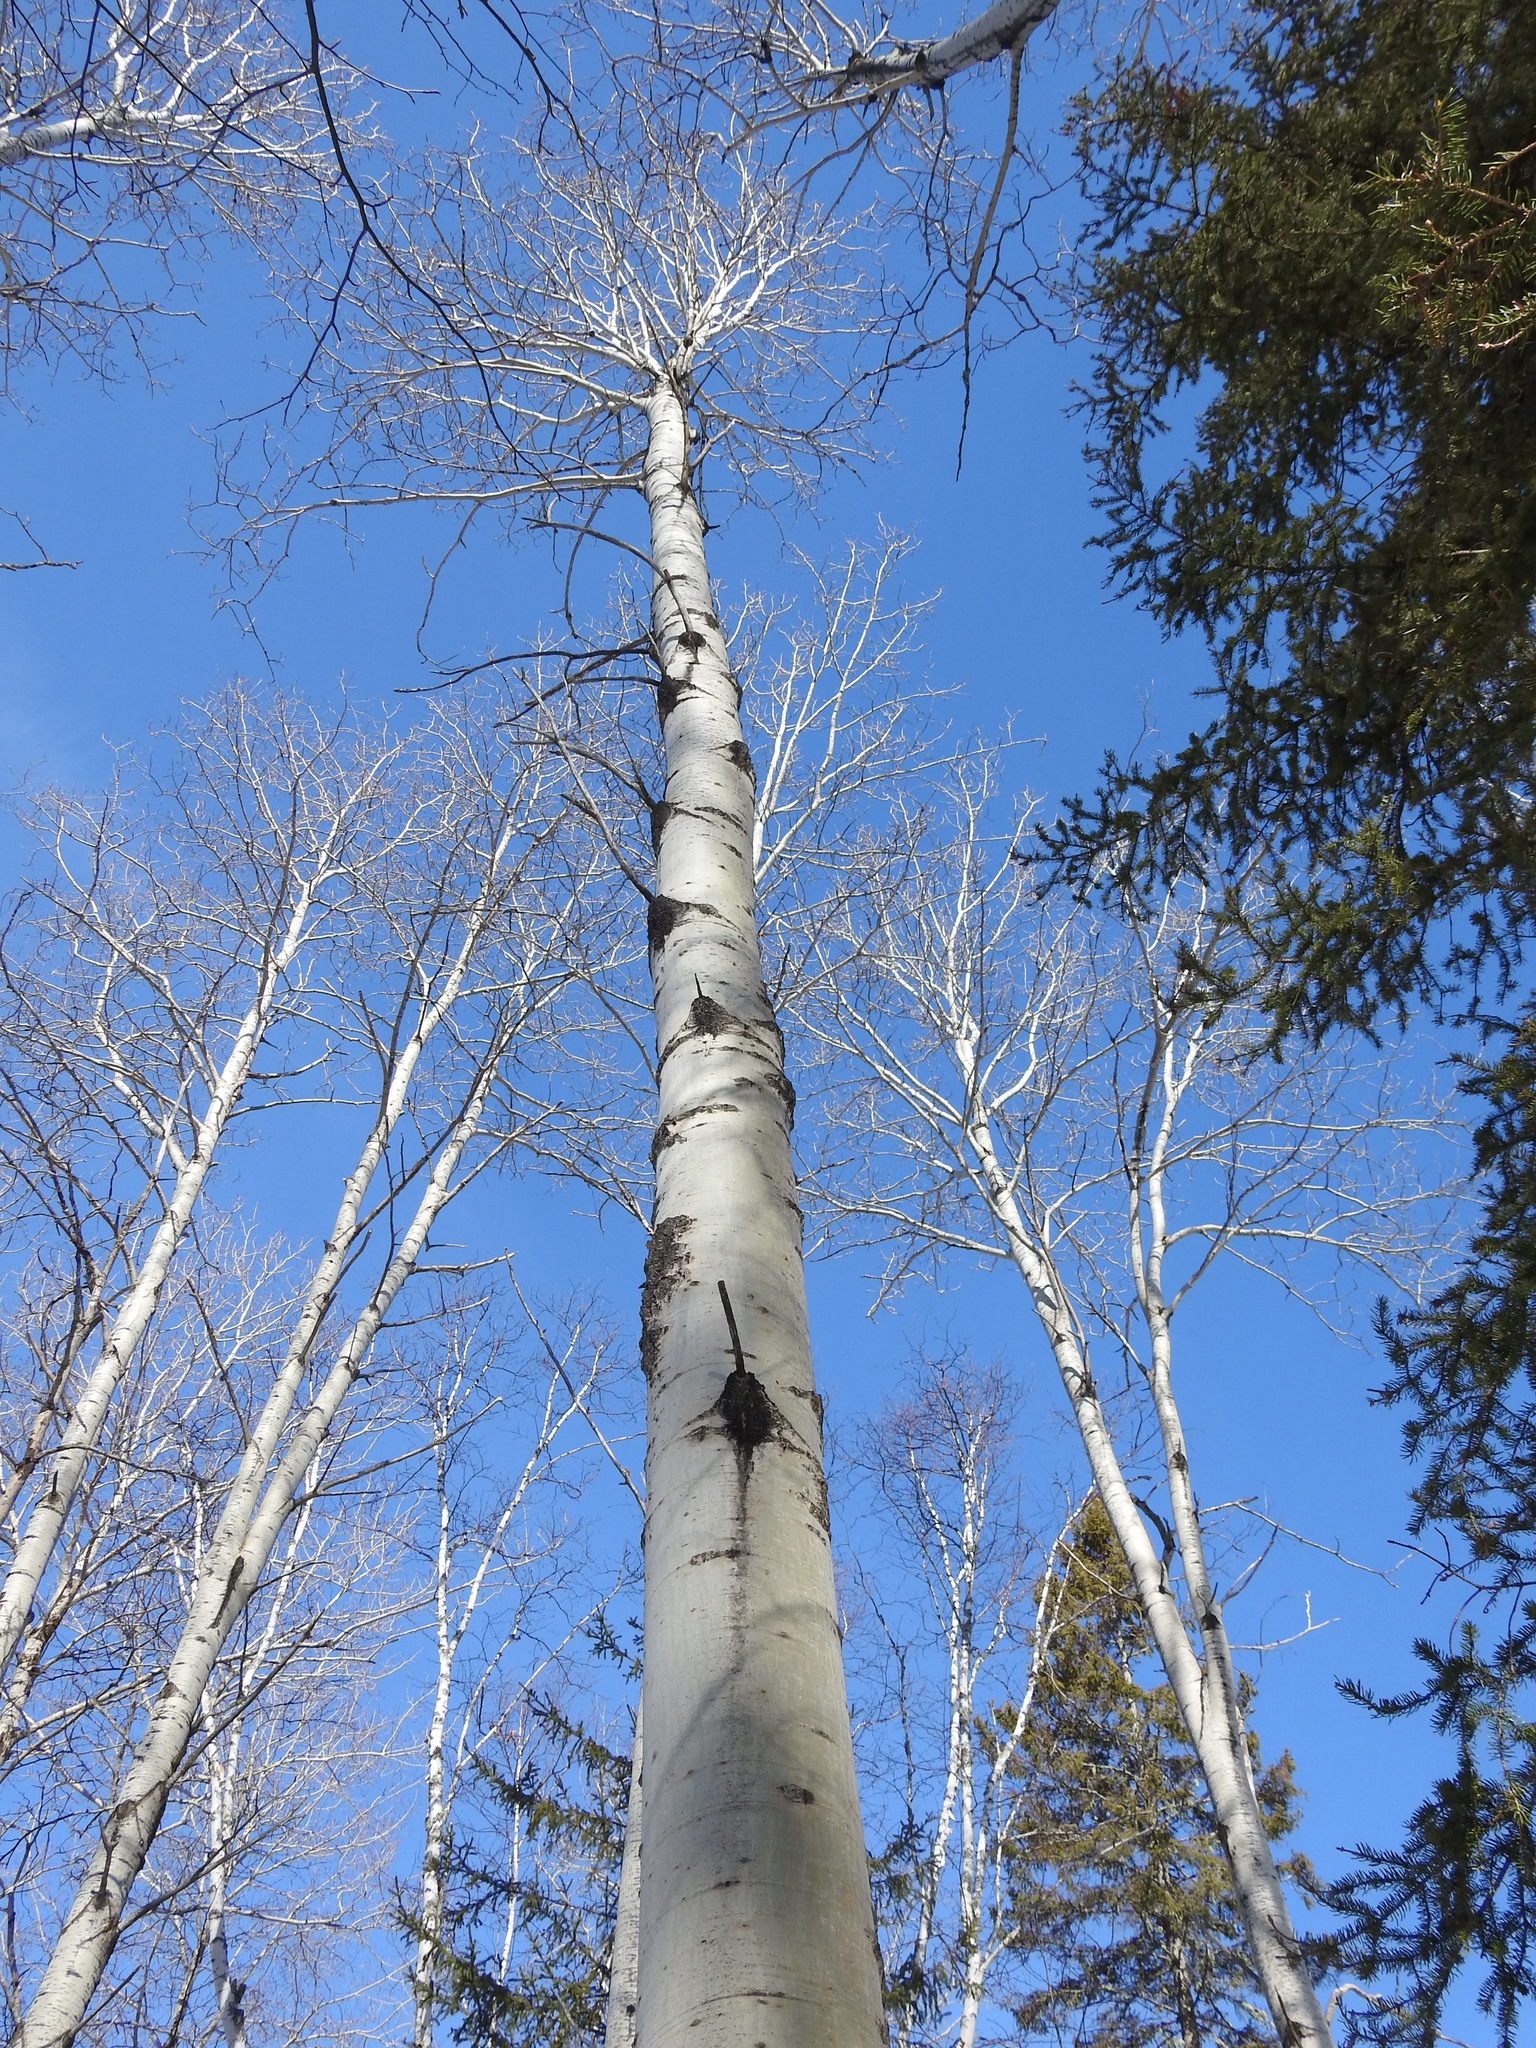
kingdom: Plantae
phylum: Tracheophyta
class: Magnoliopsida
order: Malpighiales
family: Salicaceae
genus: Populus
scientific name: Populus tremuloides
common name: Quaking aspen
